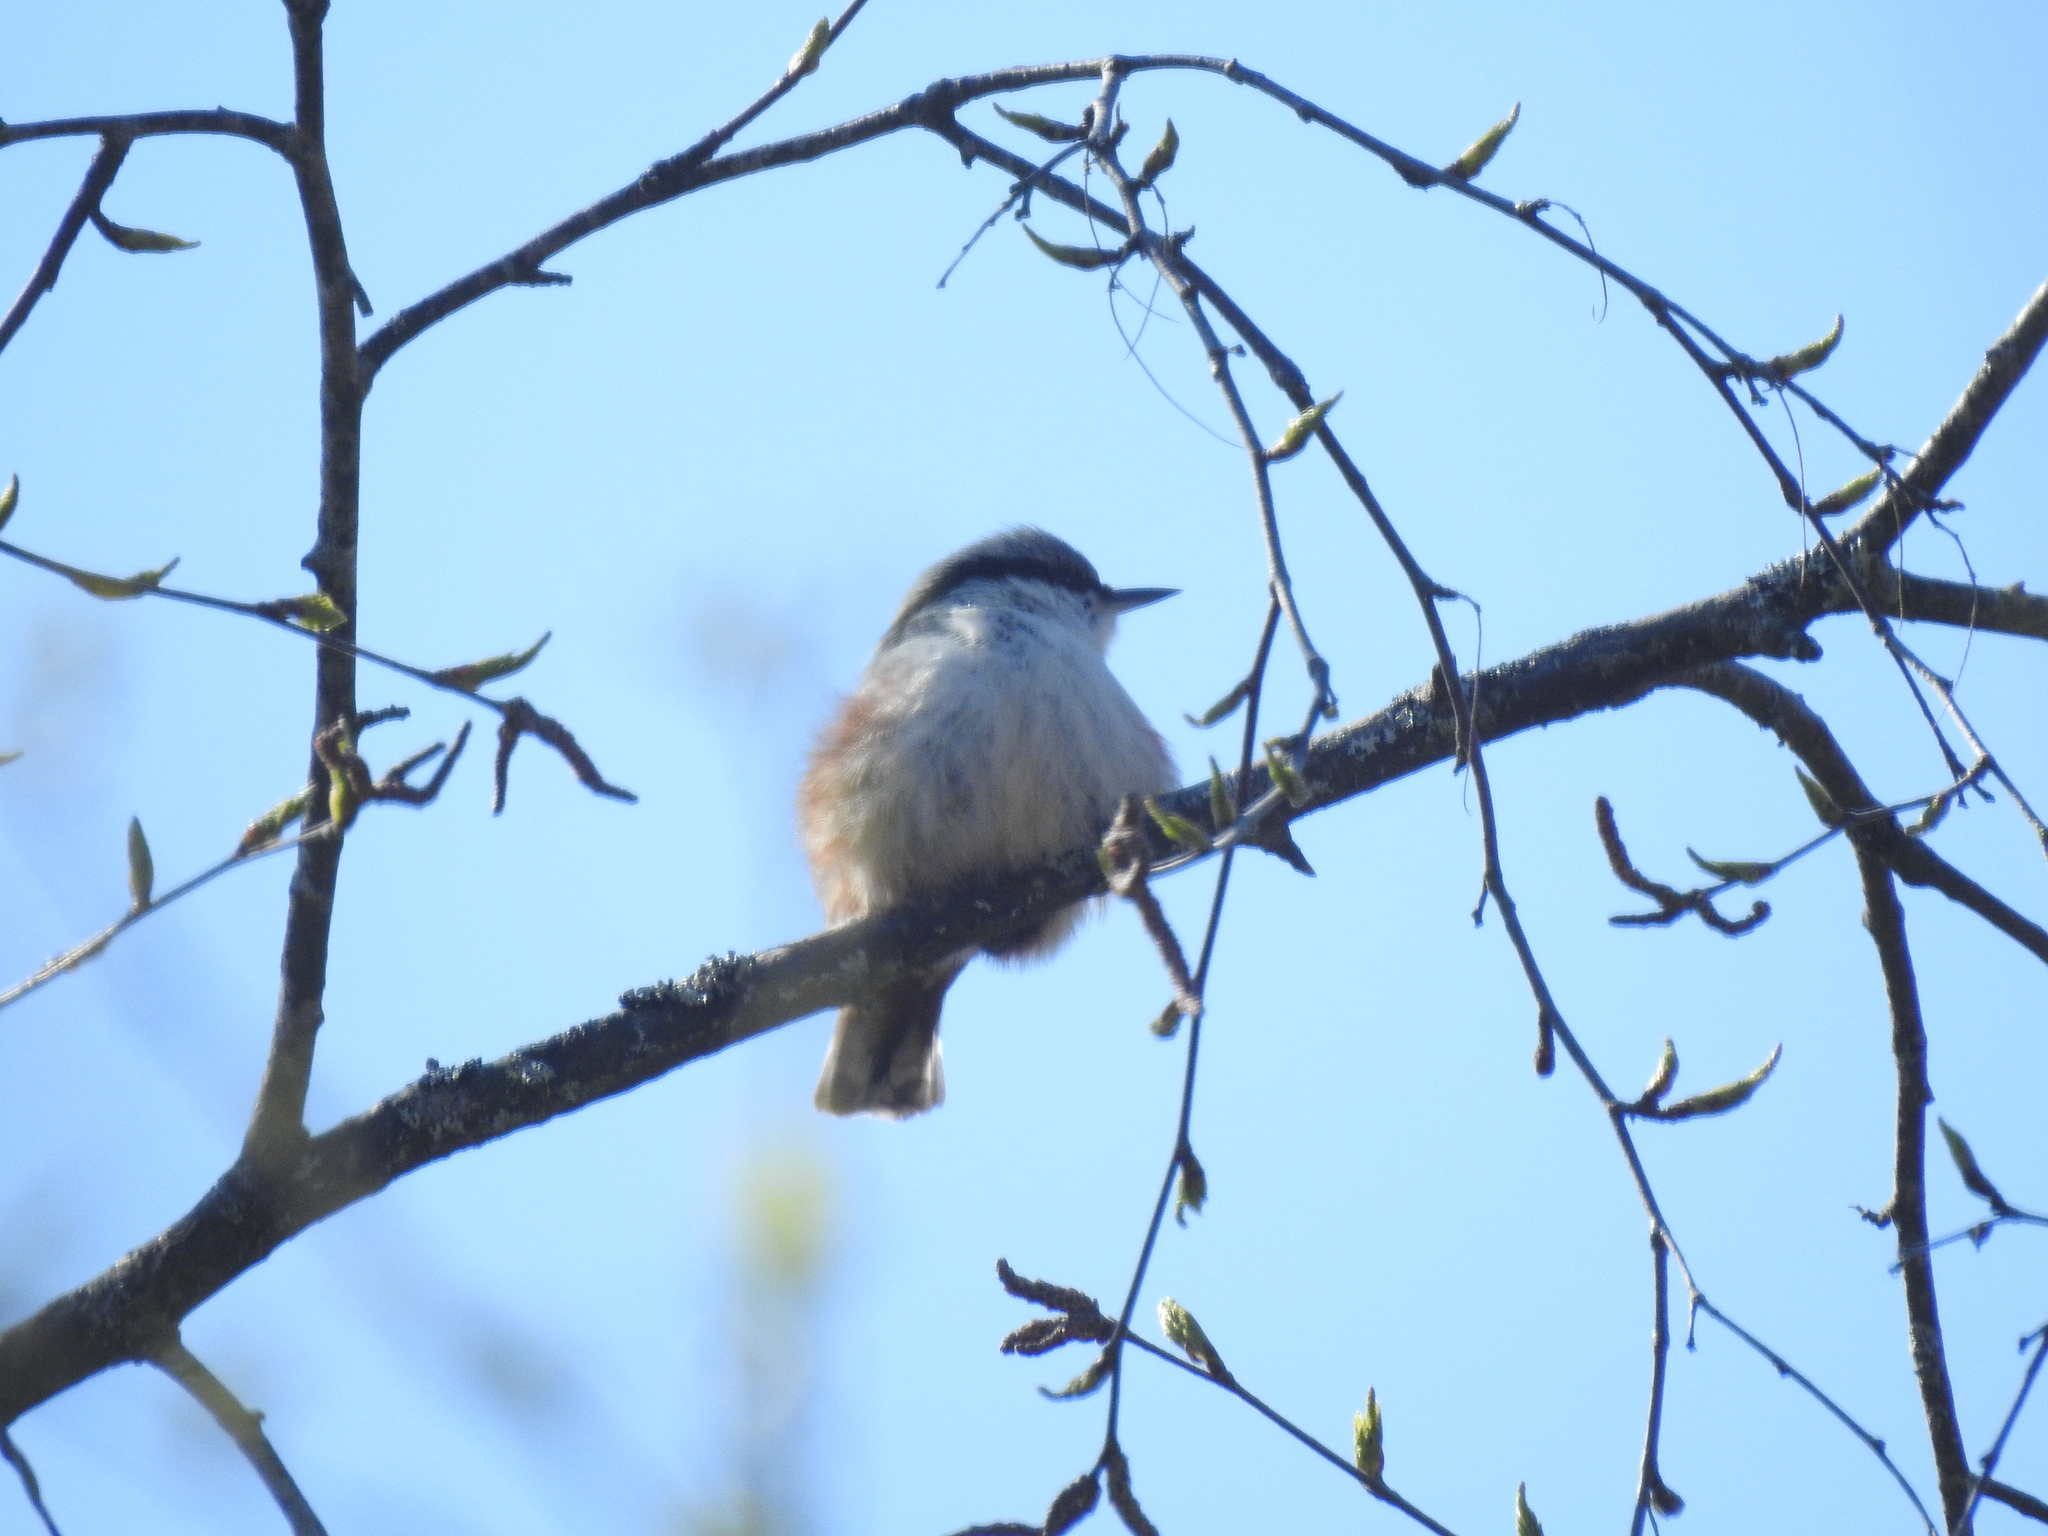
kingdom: Animalia
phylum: Chordata
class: Aves
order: Passeriformes
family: Sittidae
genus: Sitta
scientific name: Sitta europaea
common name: Eurasian nuthatch
